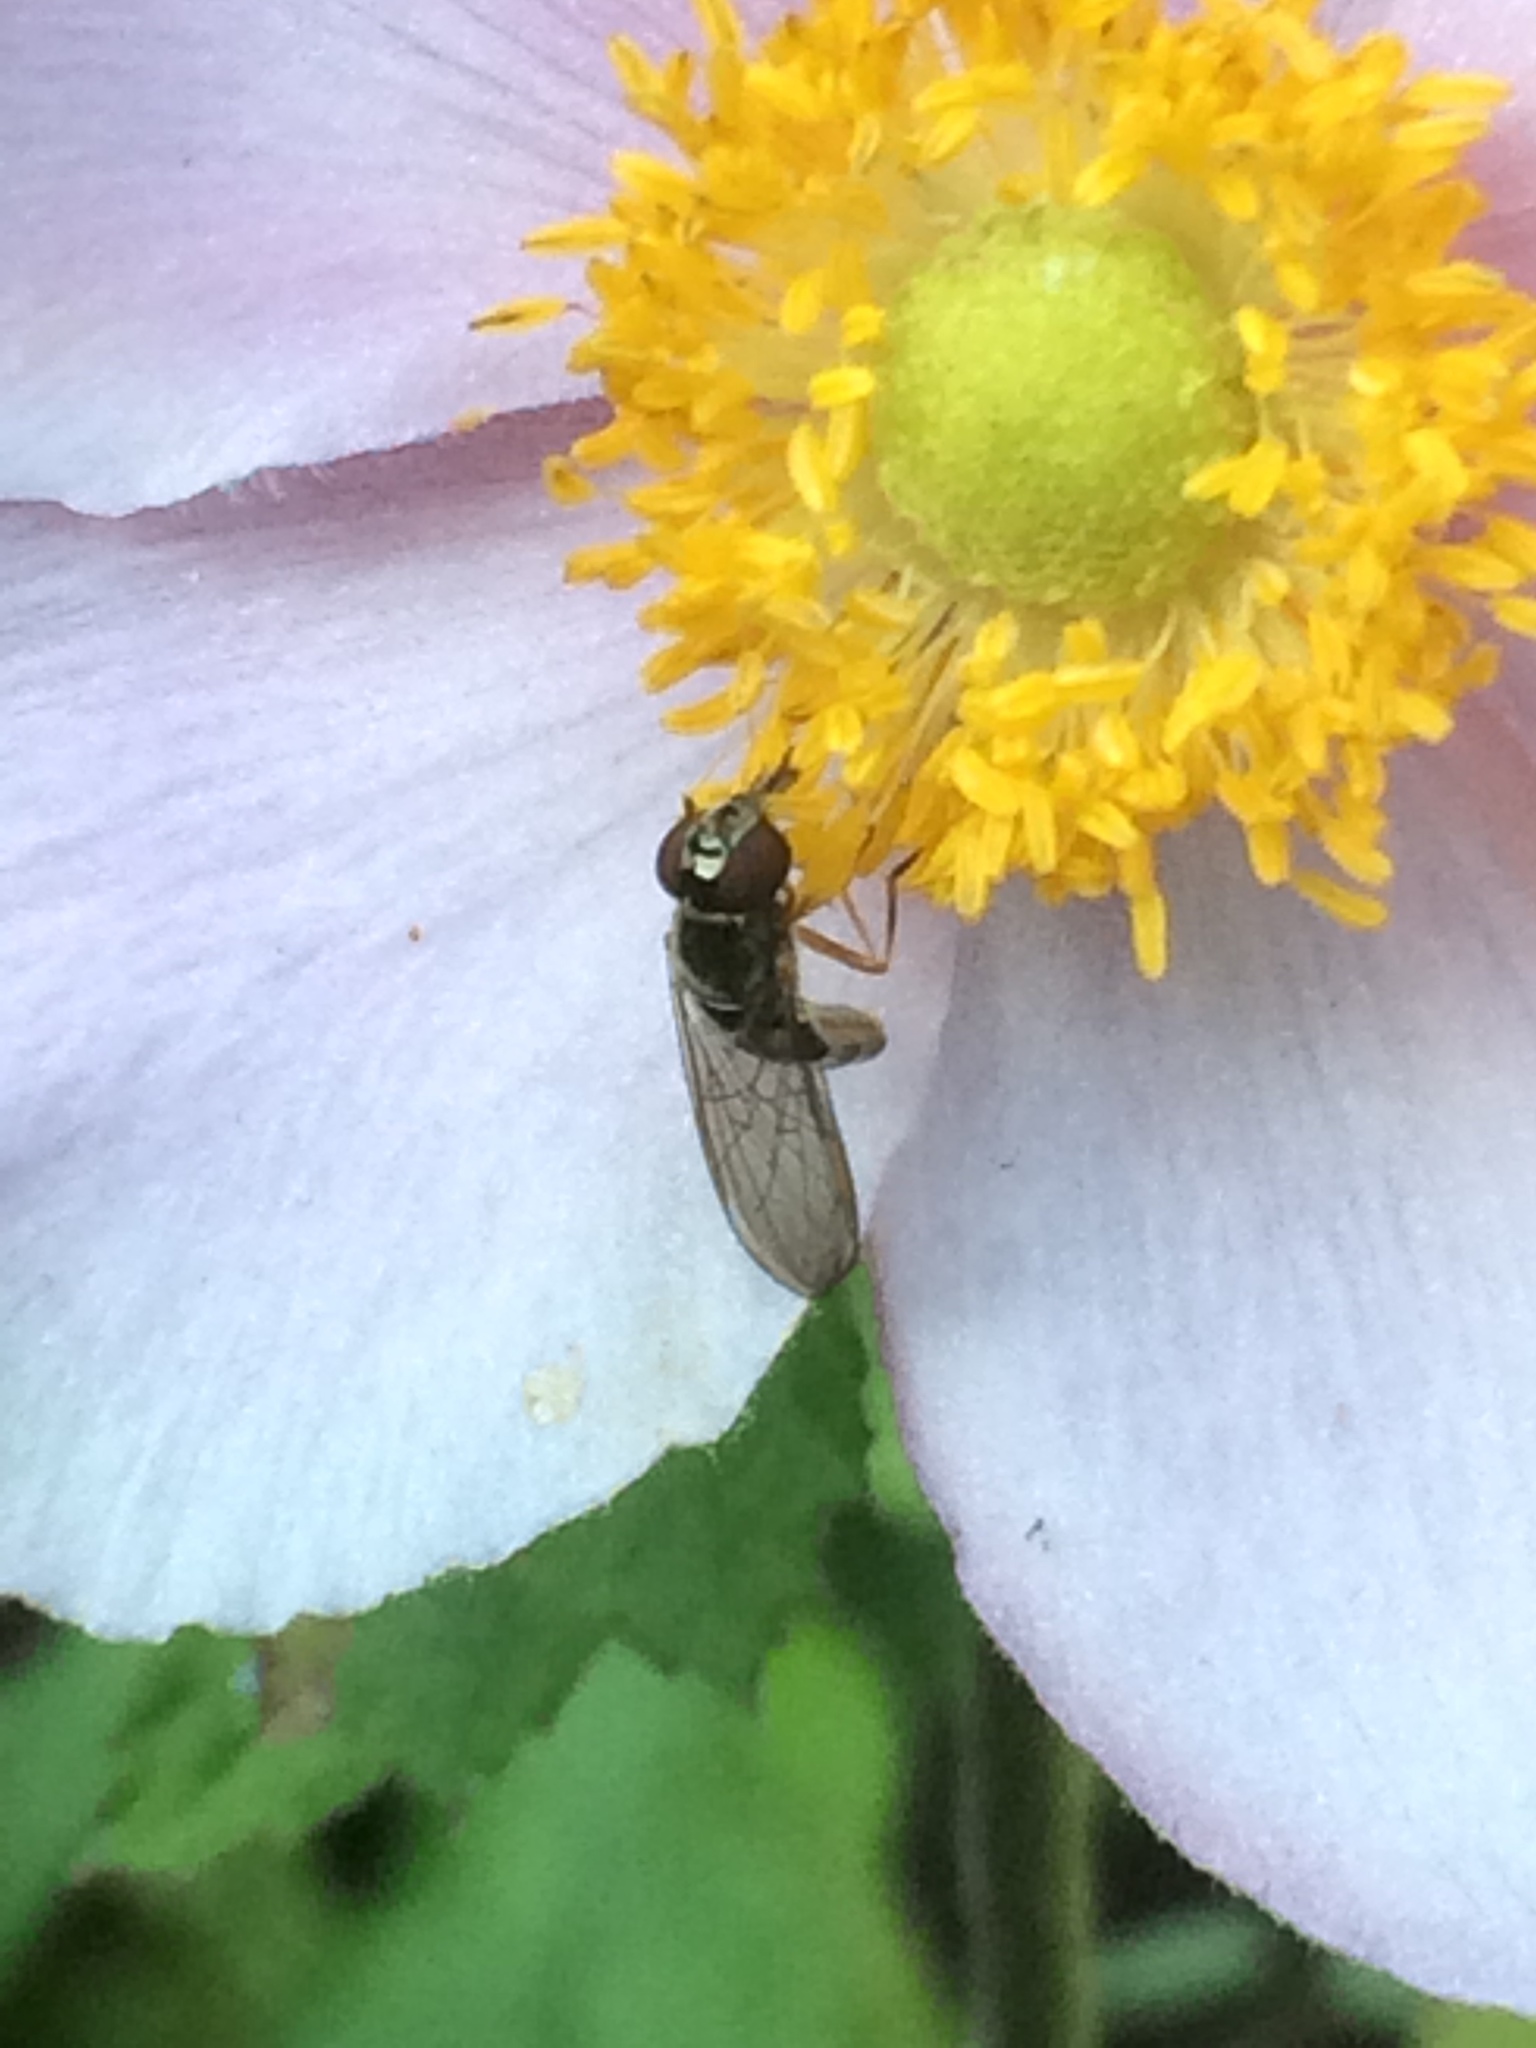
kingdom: Animalia
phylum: Arthropoda
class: Insecta
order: Diptera
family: Syrphidae
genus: Melanostoma
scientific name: Melanostoma scalare
